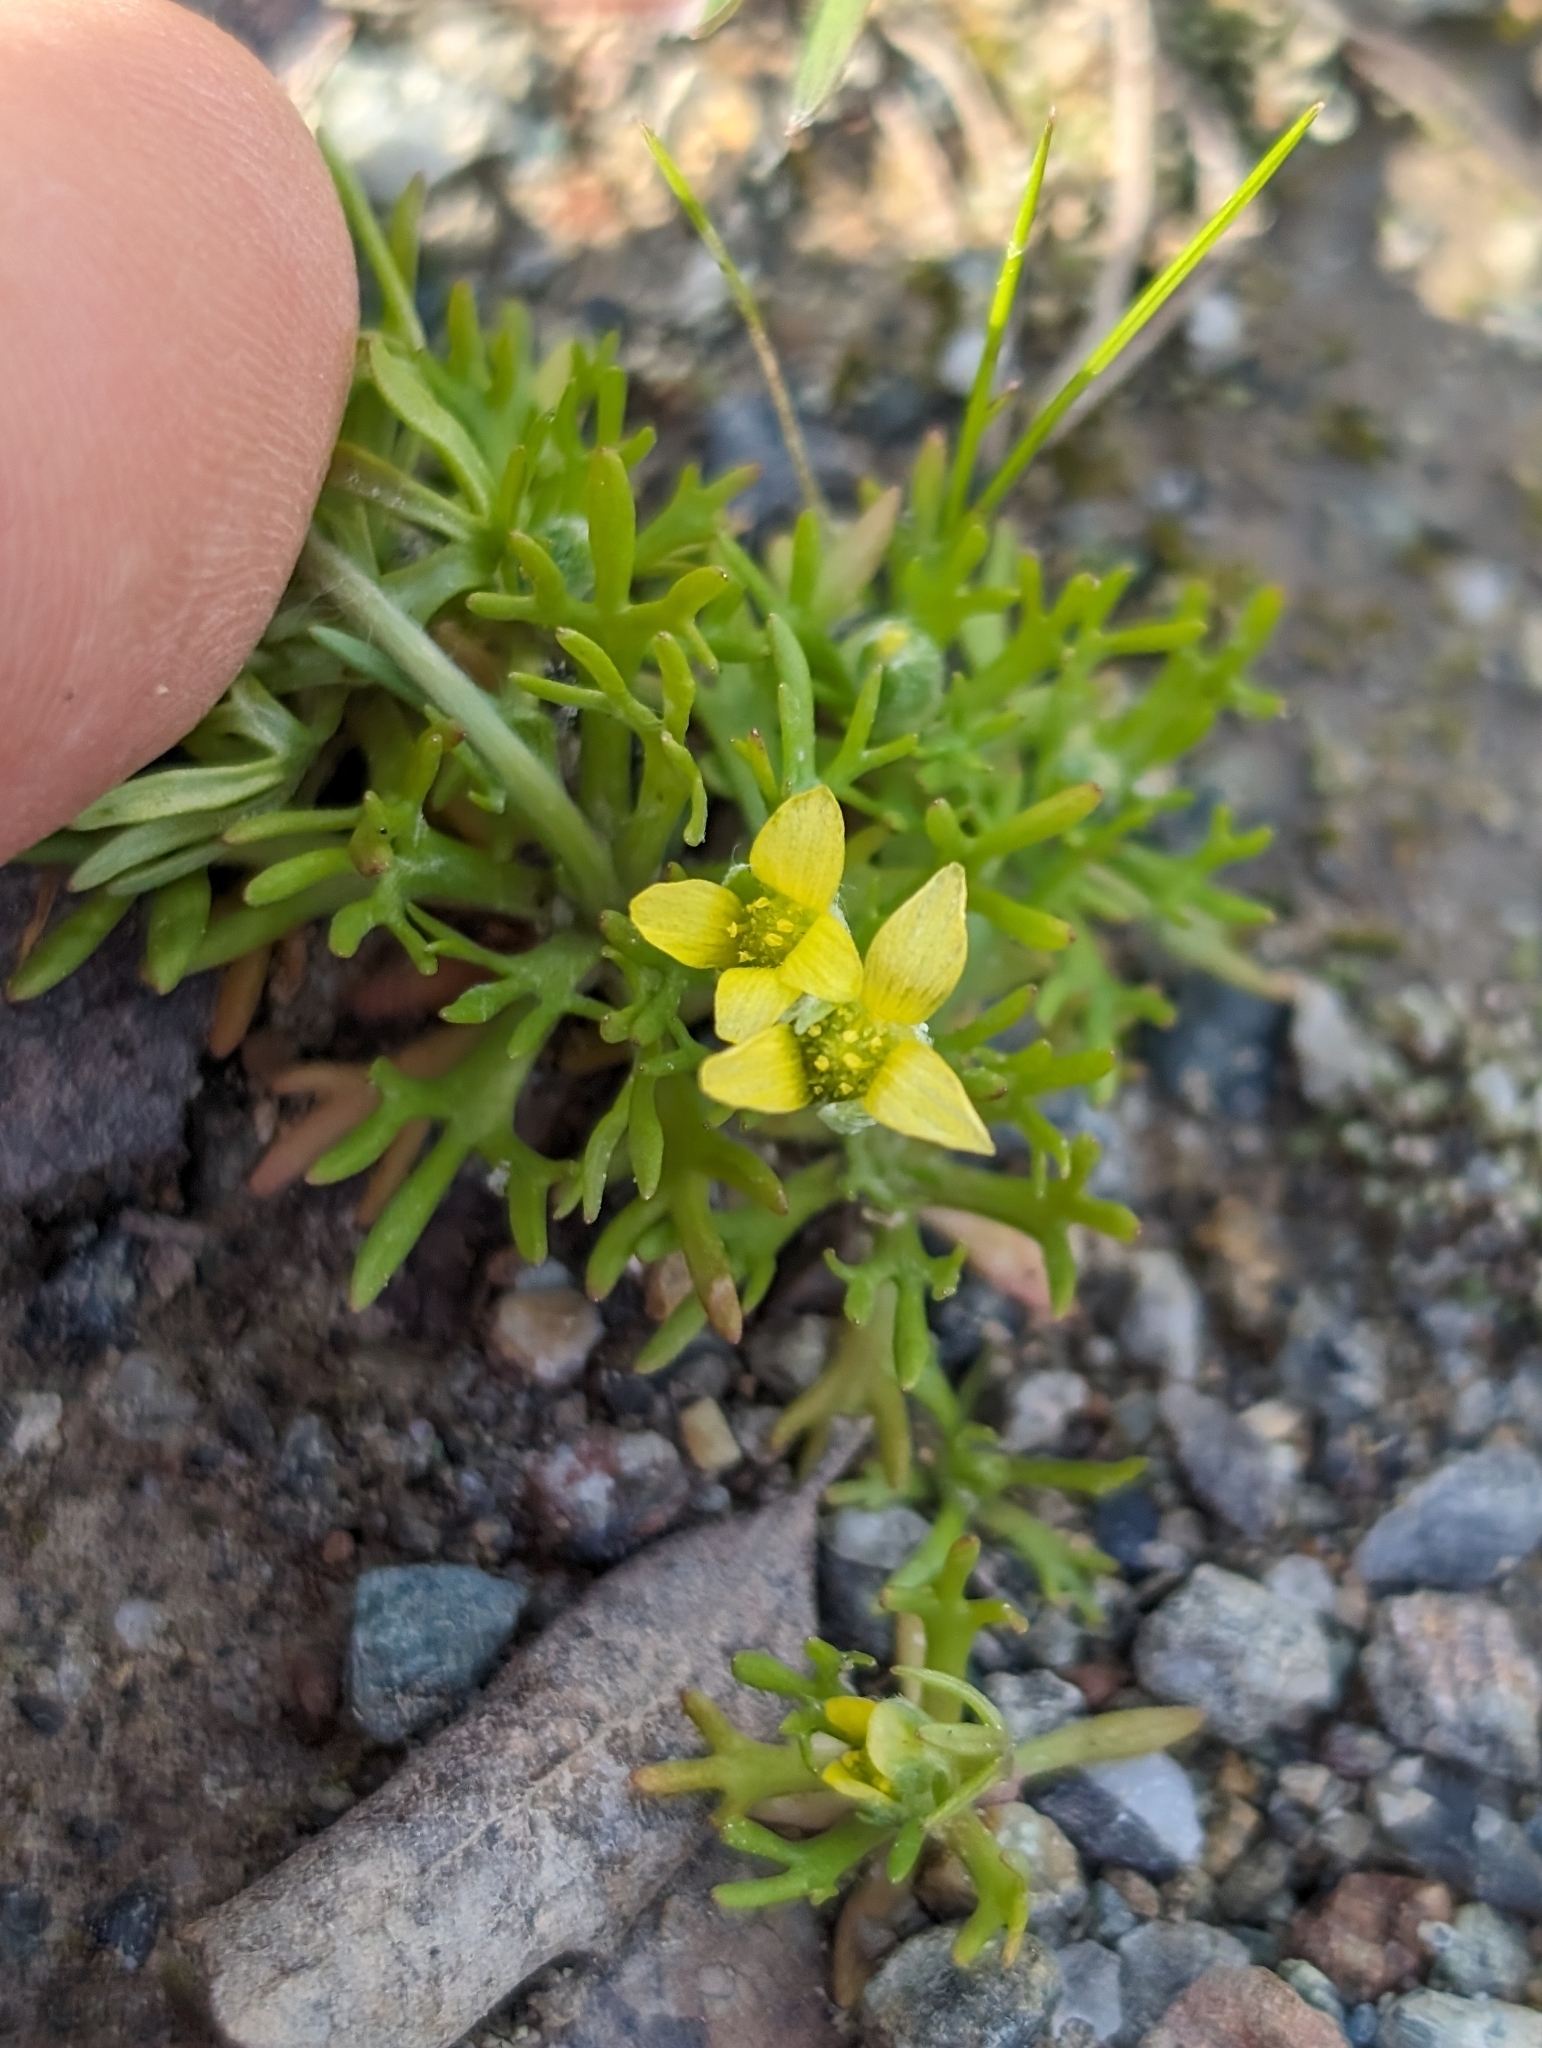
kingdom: Plantae
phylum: Tracheophyta
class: Magnoliopsida
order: Ranunculales
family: Ranunculaceae
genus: Ceratocephala
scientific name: Ceratocephala orthoceras
